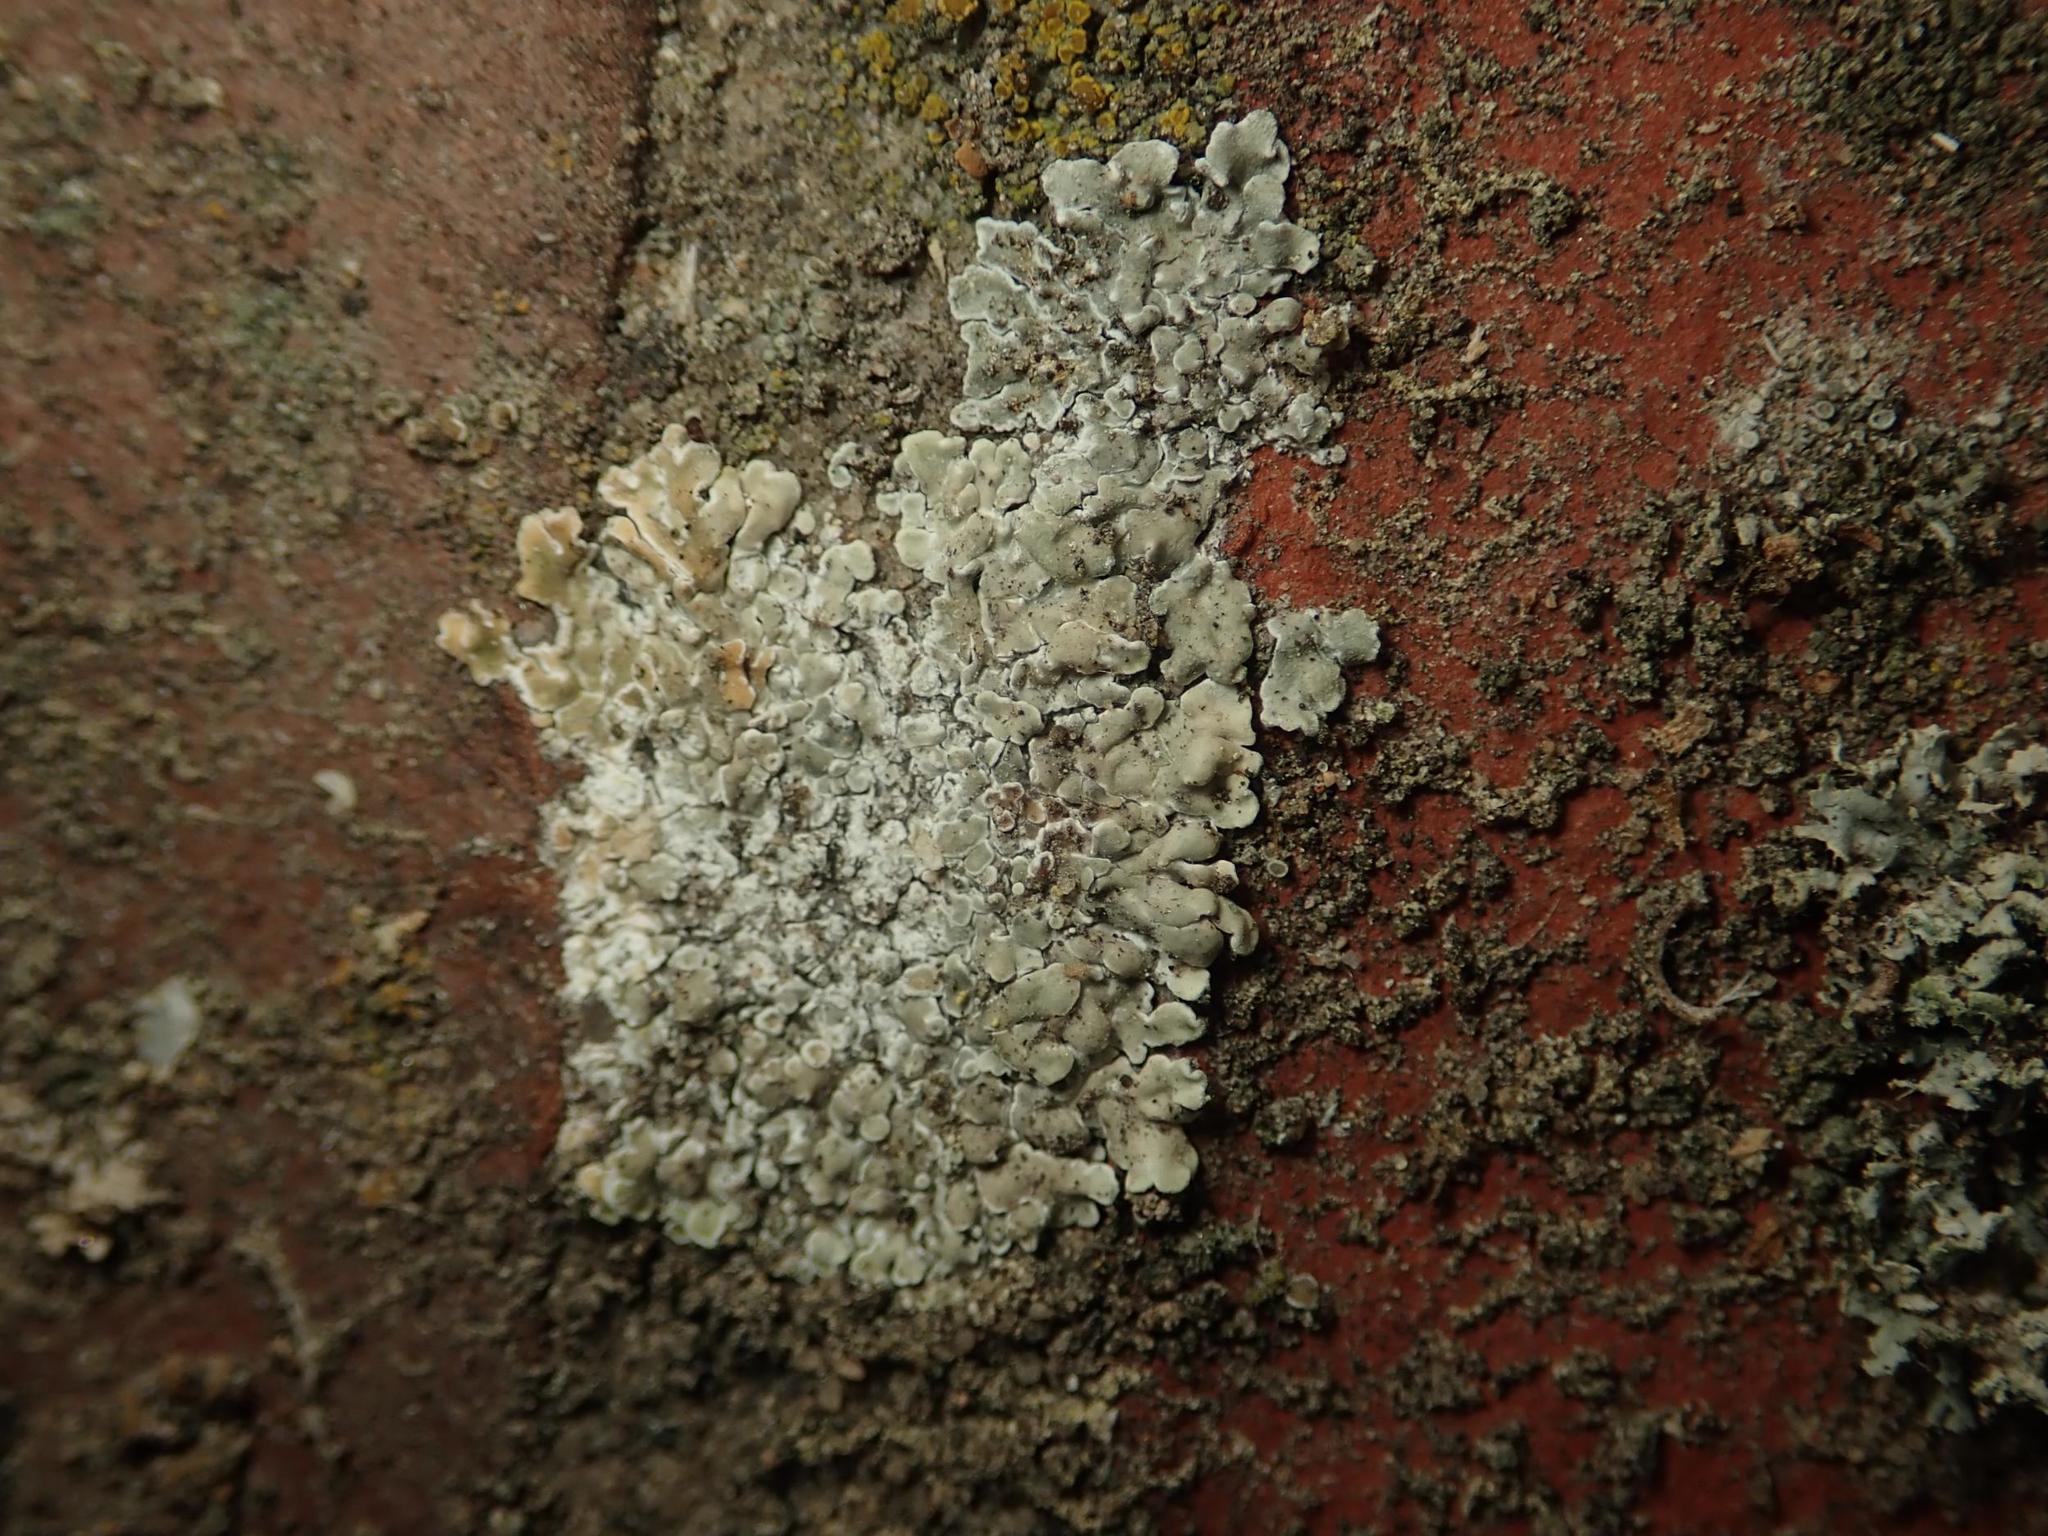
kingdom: Fungi
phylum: Ascomycota
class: Lecanoromycetes
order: Lecanorales
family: Lecanoraceae
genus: Protoparmeliopsis
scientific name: Protoparmeliopsis muralis
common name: Stonewall rim lichen
